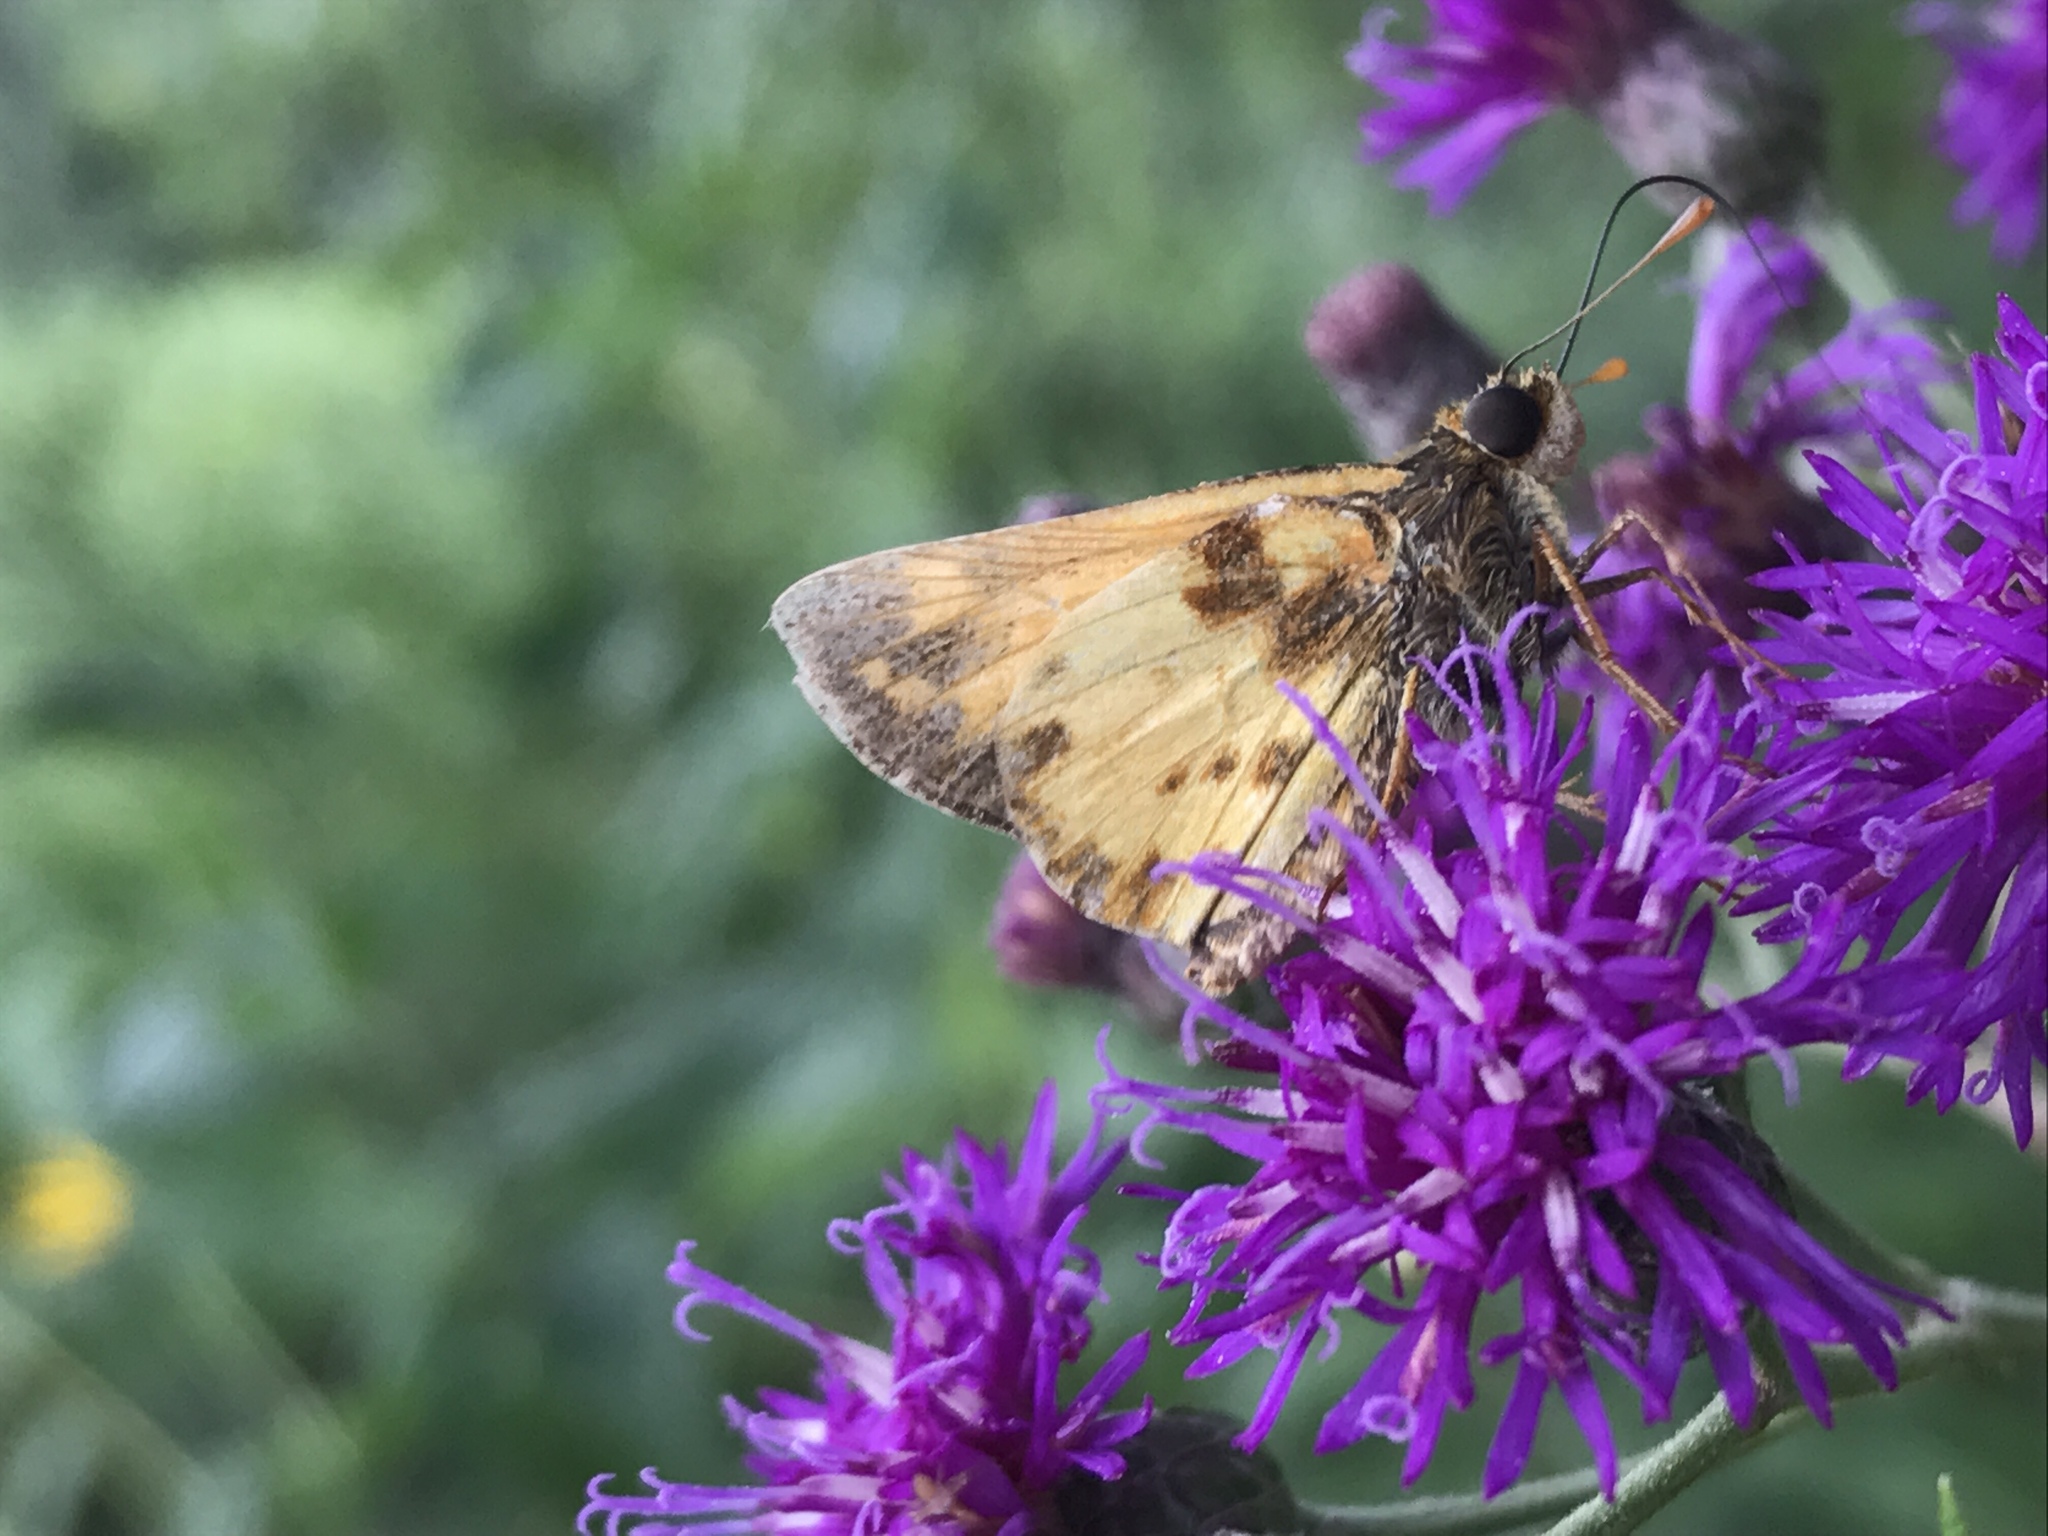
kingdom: Animalia
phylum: Arthropoda
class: Insecta
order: Lepidoptera
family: Hesperiidae
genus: Lon
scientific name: Lon zabulon
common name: Zabulon skipper
